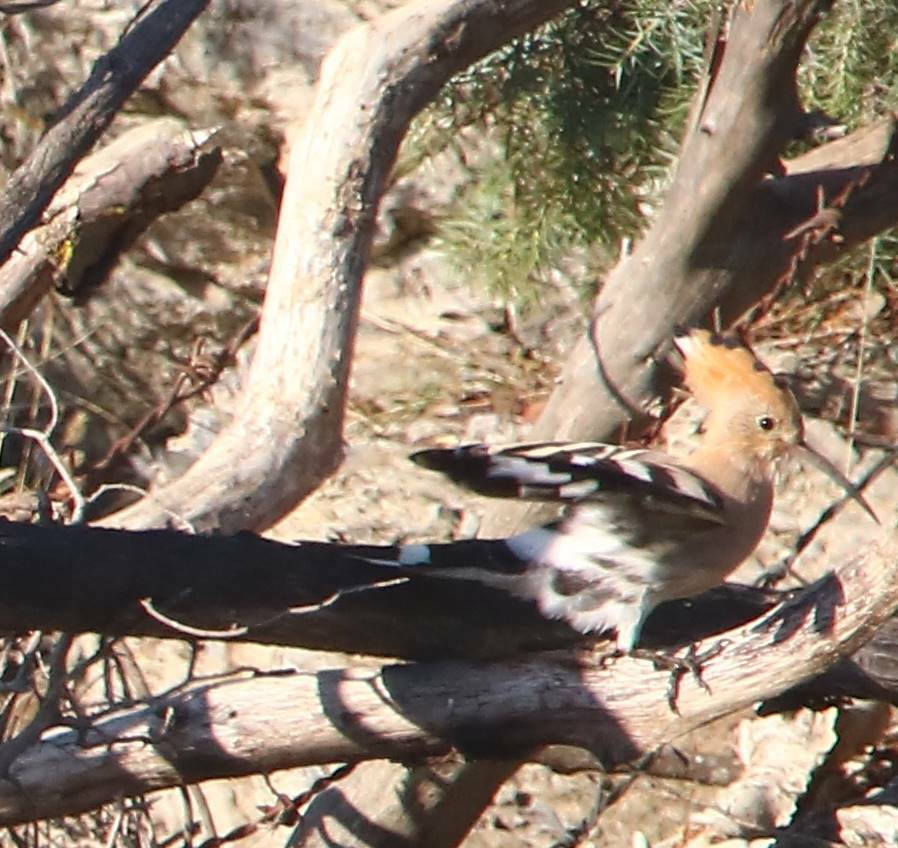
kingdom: Animalia
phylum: Chordata
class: Aves
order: Bucerotiformes
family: Upupidae
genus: Upupa
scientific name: Upupa epops
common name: Eurasian hoopoe
